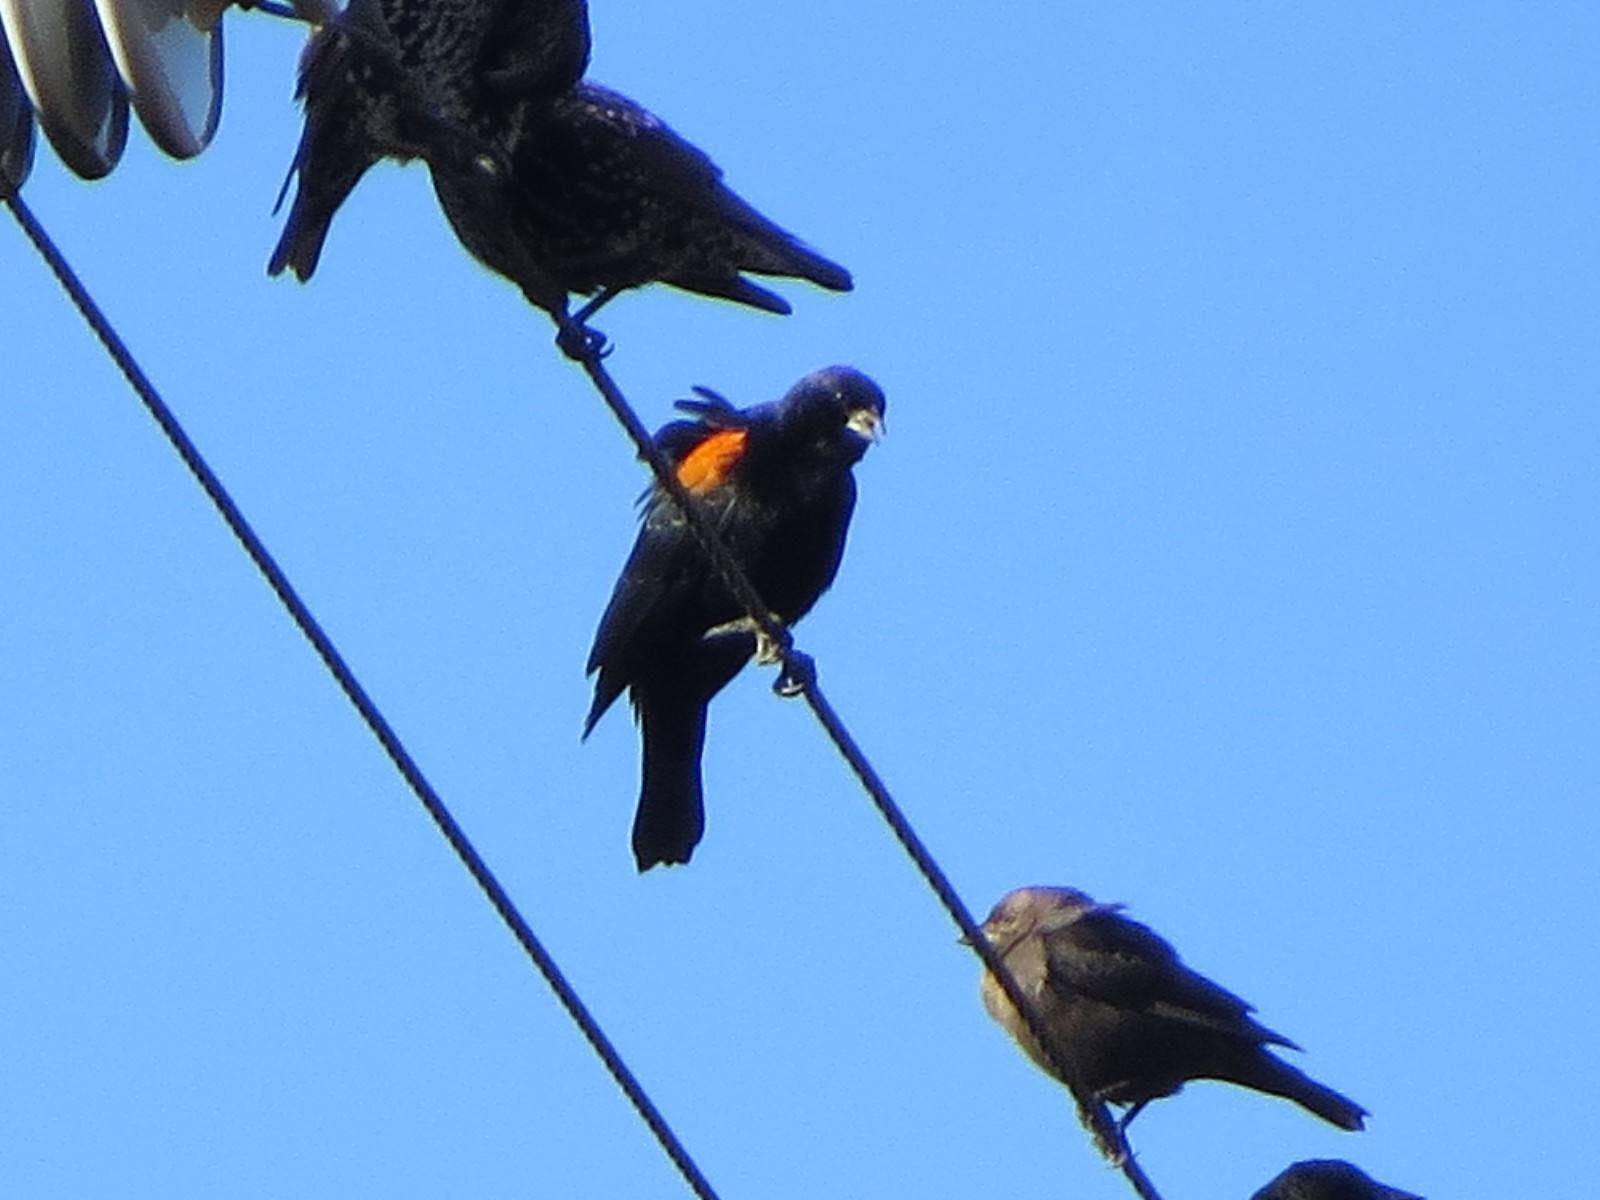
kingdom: Animalia
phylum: Chordata
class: Aves
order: Passeriformes
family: Icteridae
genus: Agelaius
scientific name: Agelaius phoeniceus
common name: Red-winged blackbird
